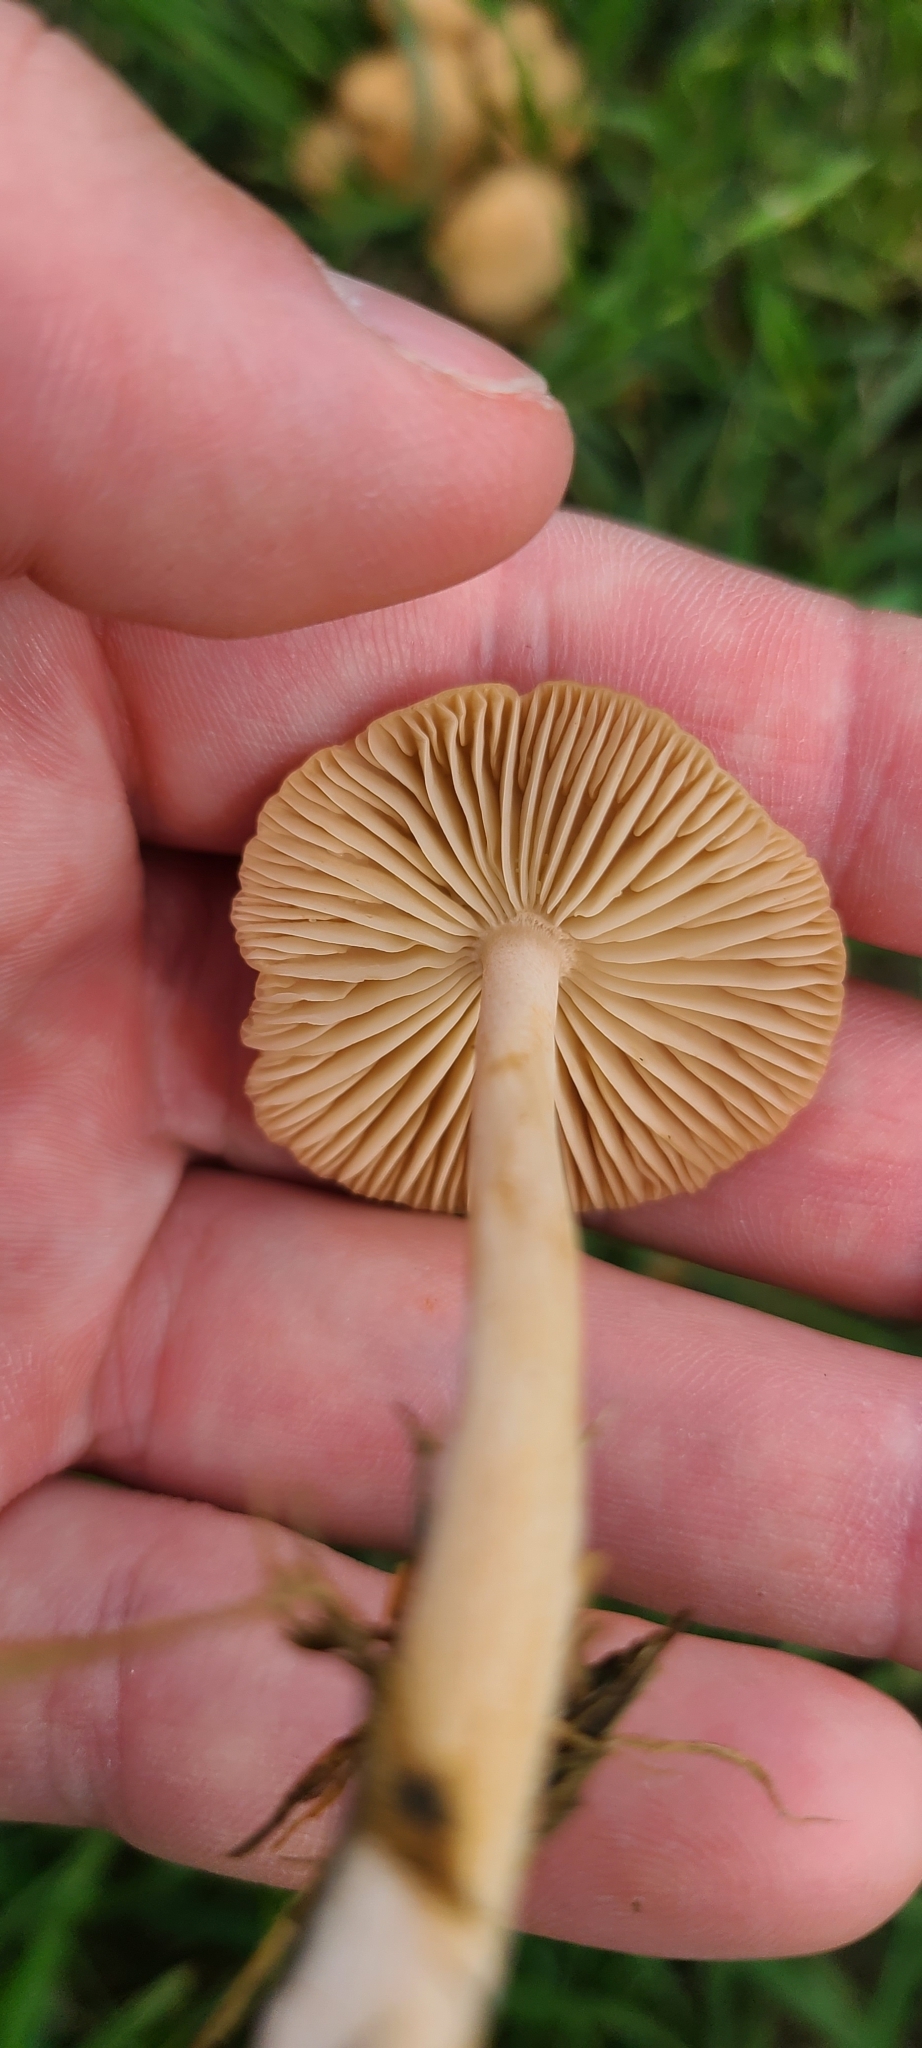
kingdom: Fungi
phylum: Basidiomycota
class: Agaricomycetes
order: Agaricales
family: Marasmiaceae
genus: Marasmius
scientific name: Marasmius oreades
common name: Fairy ring champignon
